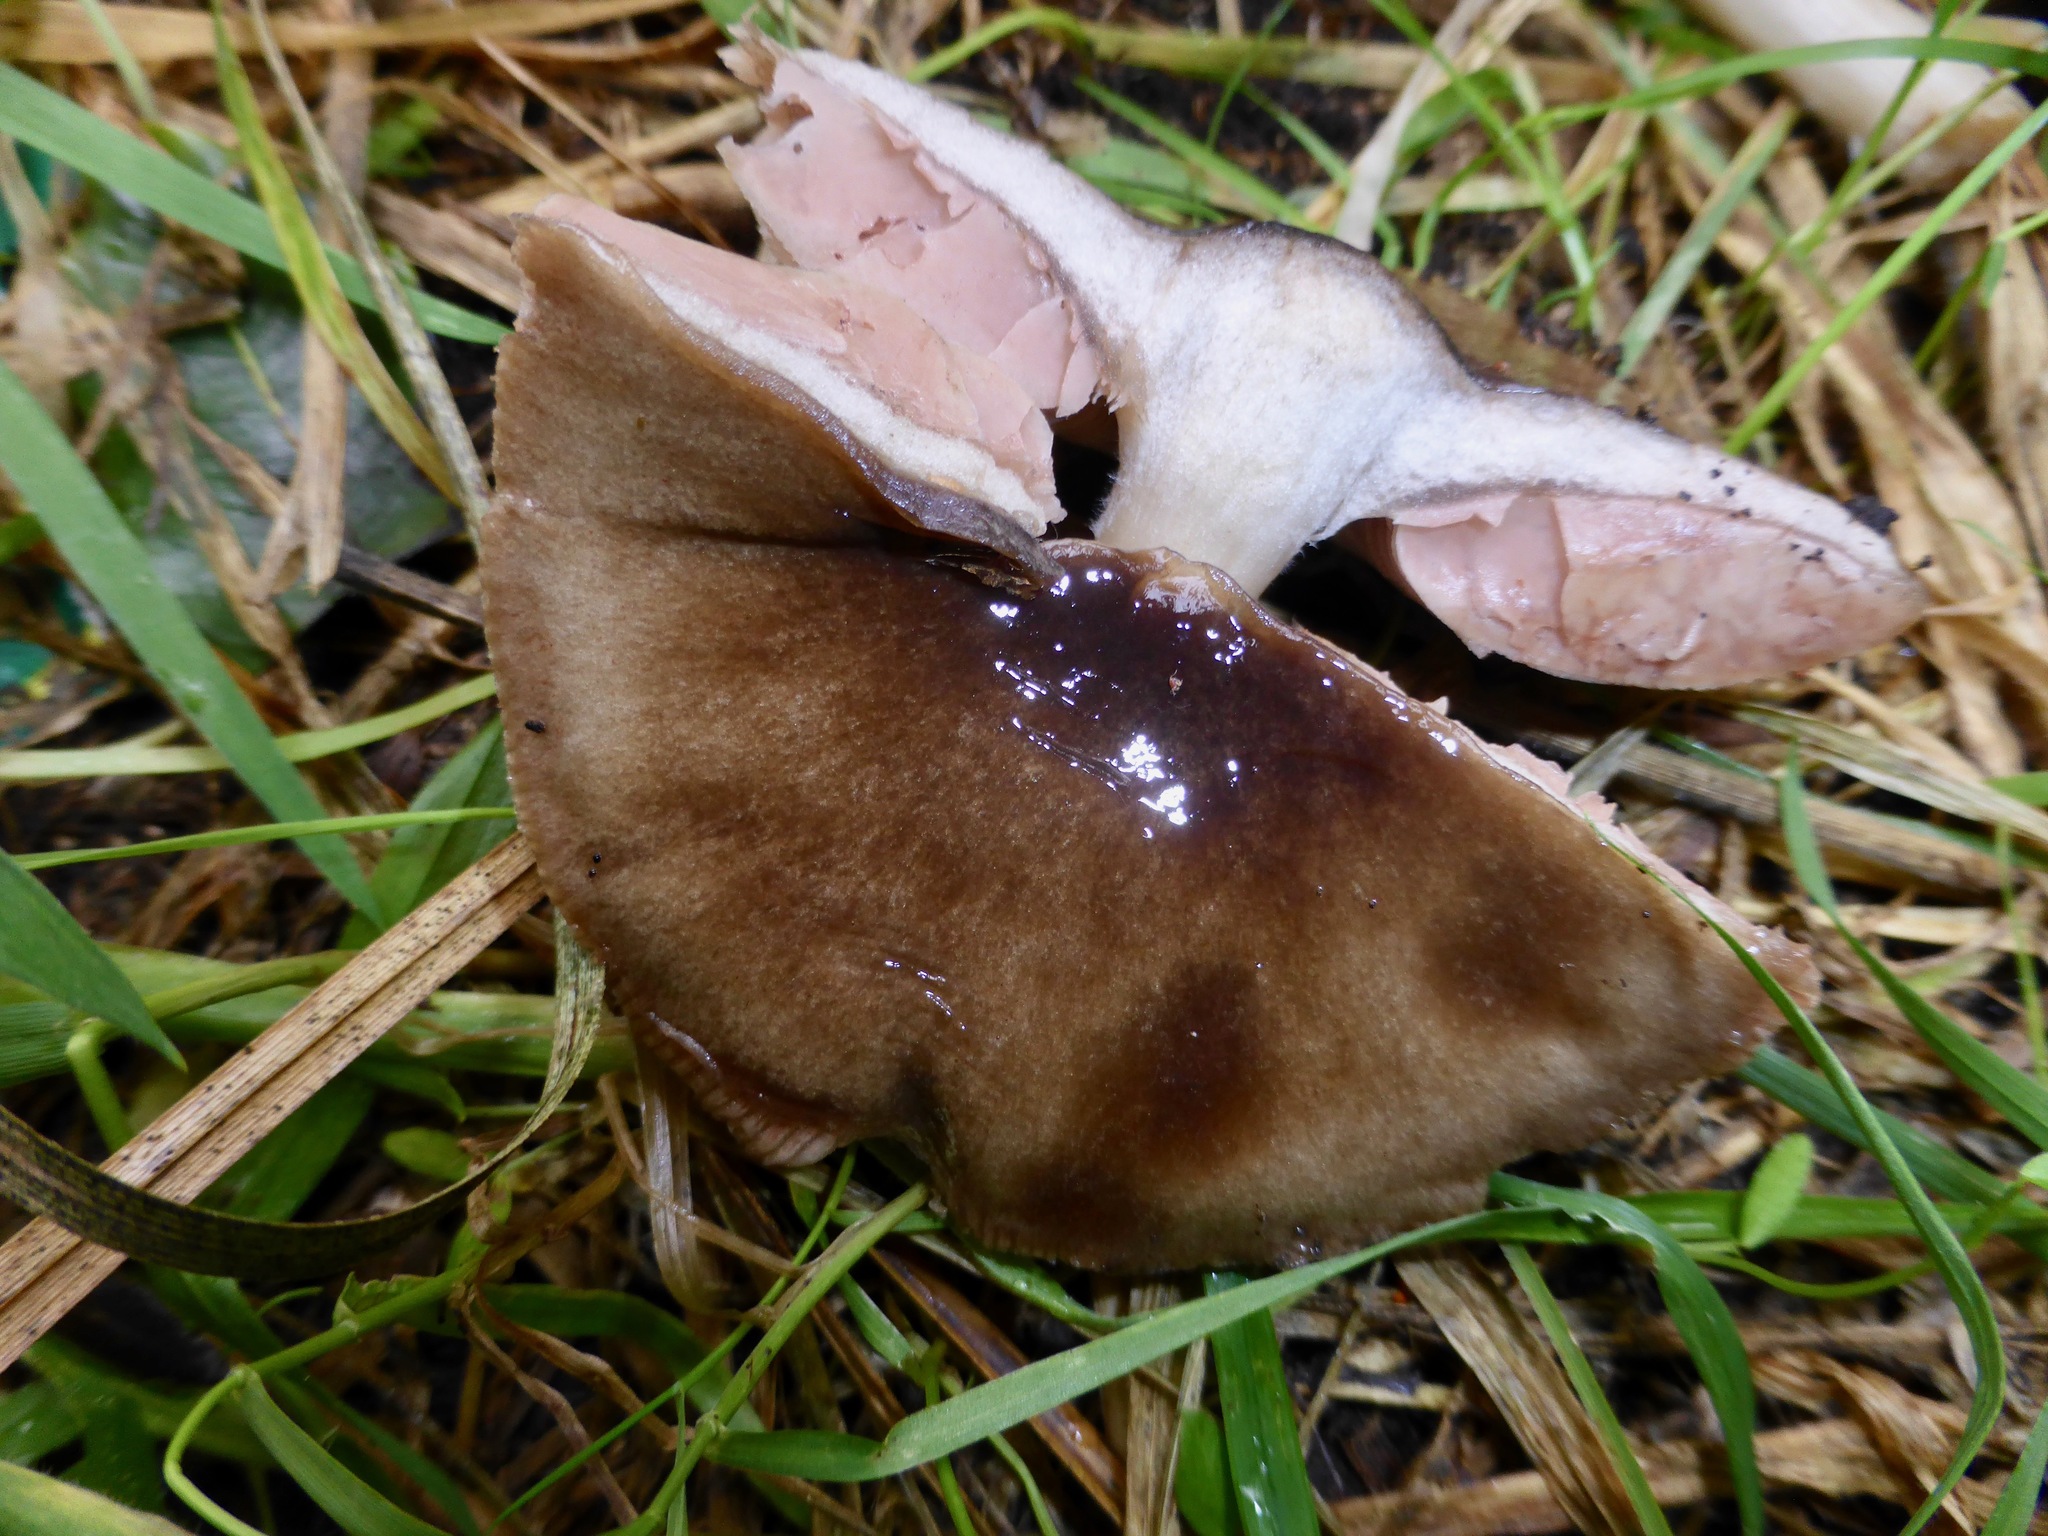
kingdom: Fungi
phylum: Basidiomycota
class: Agaricomycetes
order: Agaricales
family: Pluteaceae
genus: Volvopluteus
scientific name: Volvopluteus gloiocephalus
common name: Stubble rosegill
